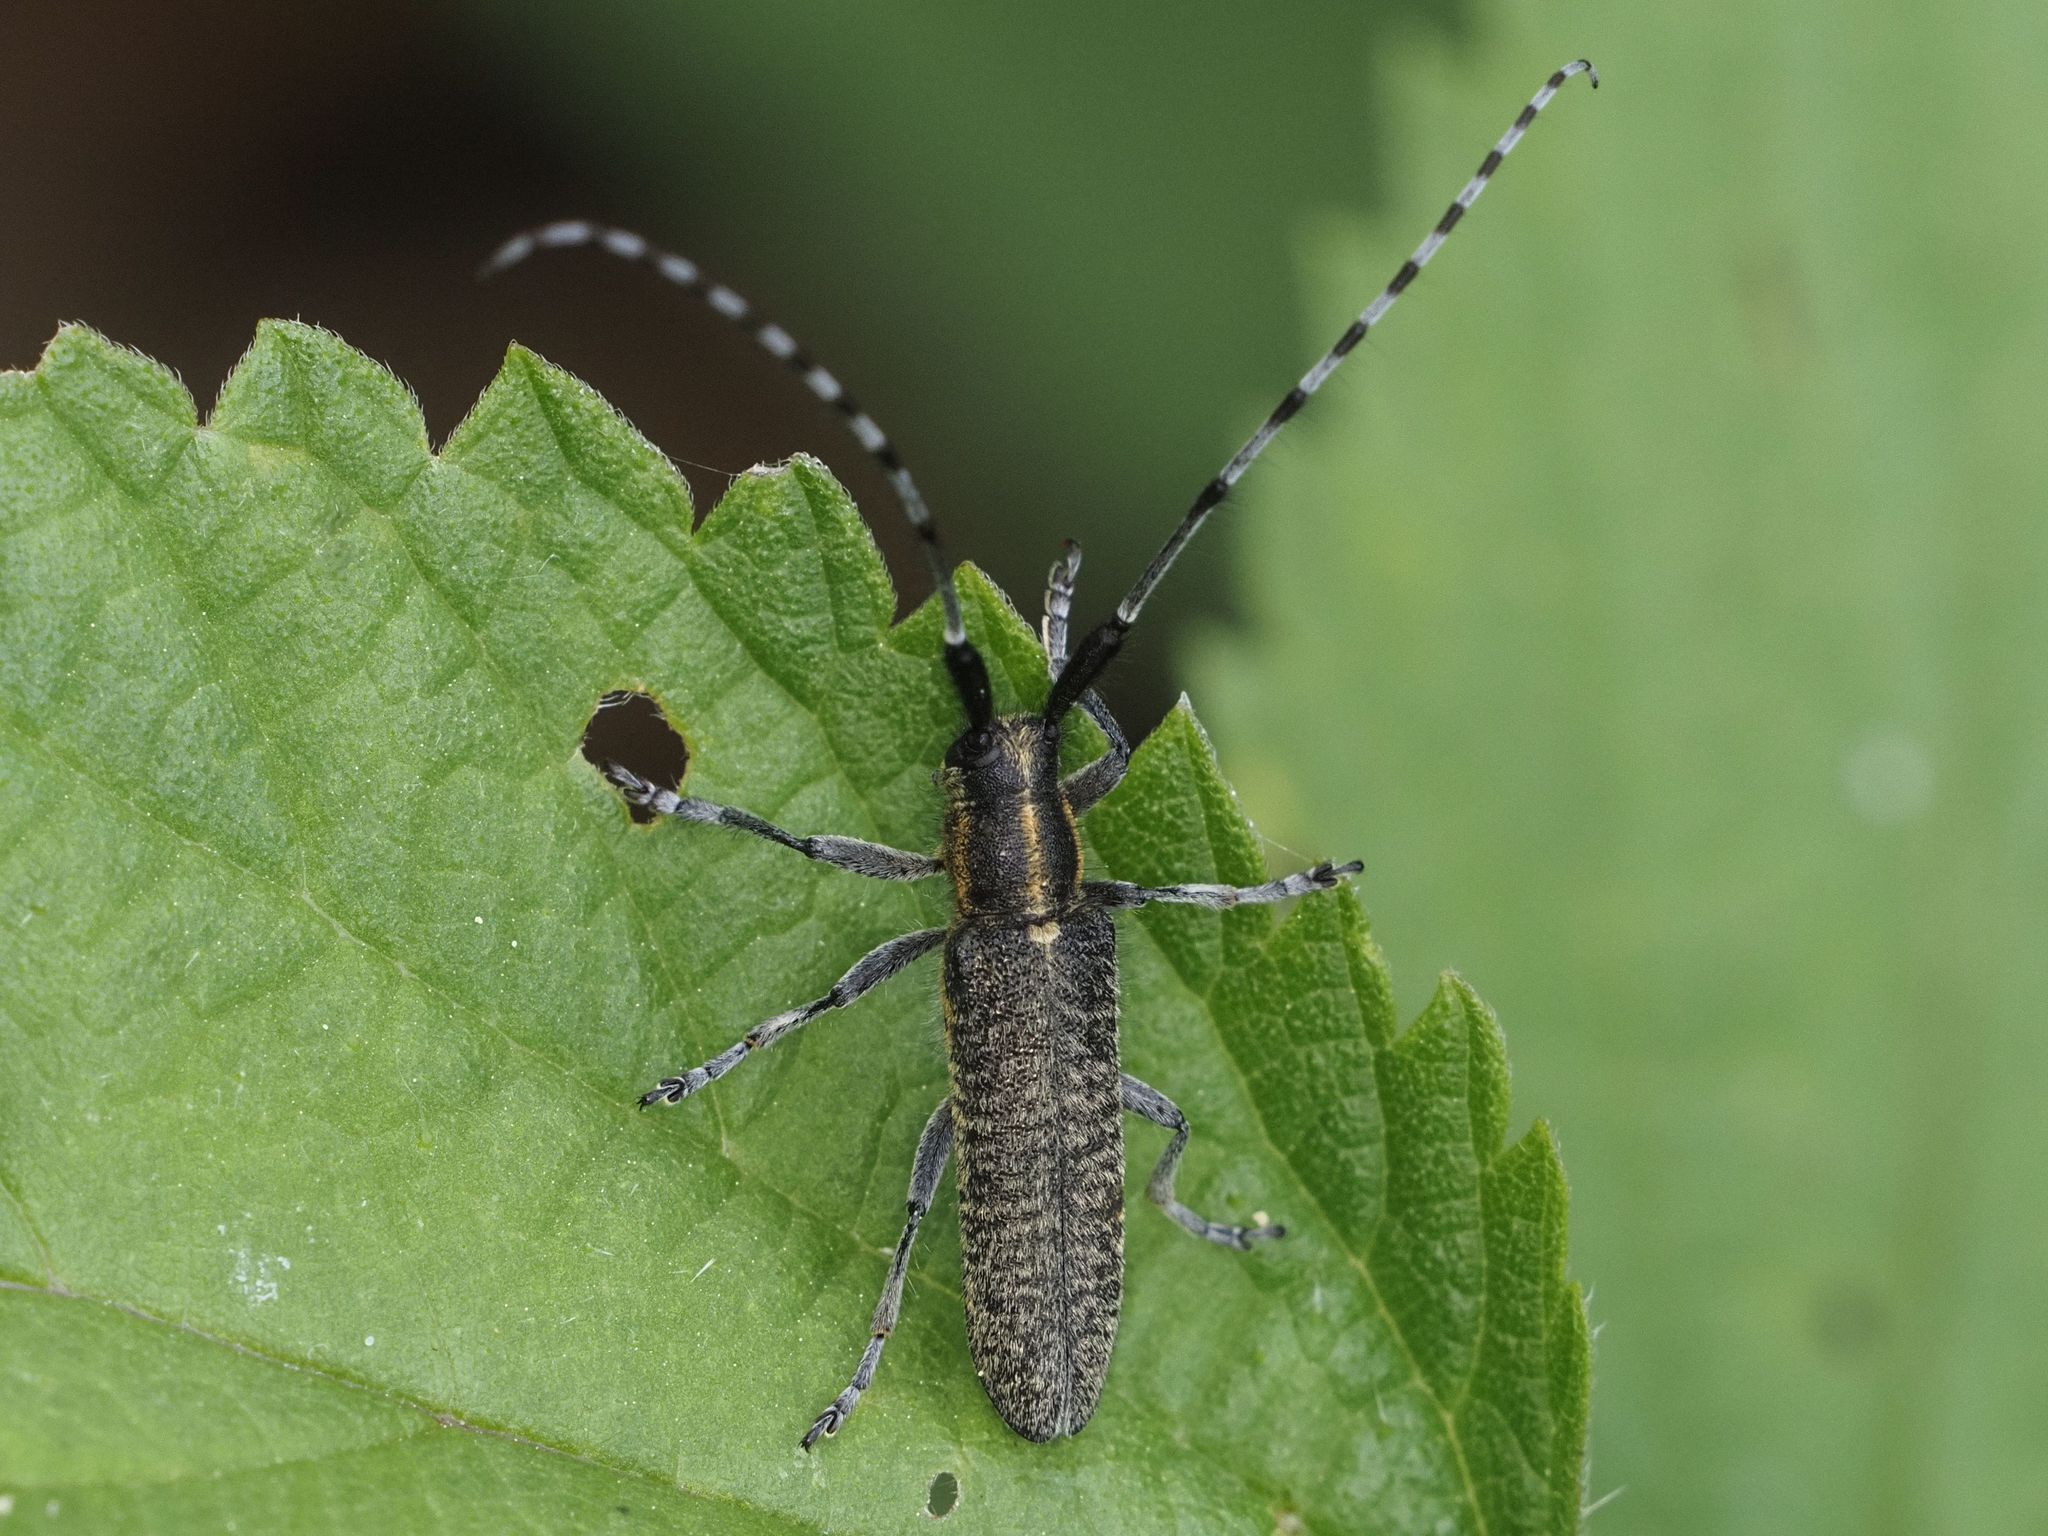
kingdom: Animalia
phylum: Arthropoda
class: Insecta
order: Coleoptera
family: Cerambycidae
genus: Agapanthia
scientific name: Agapanthia villosoviridescens
